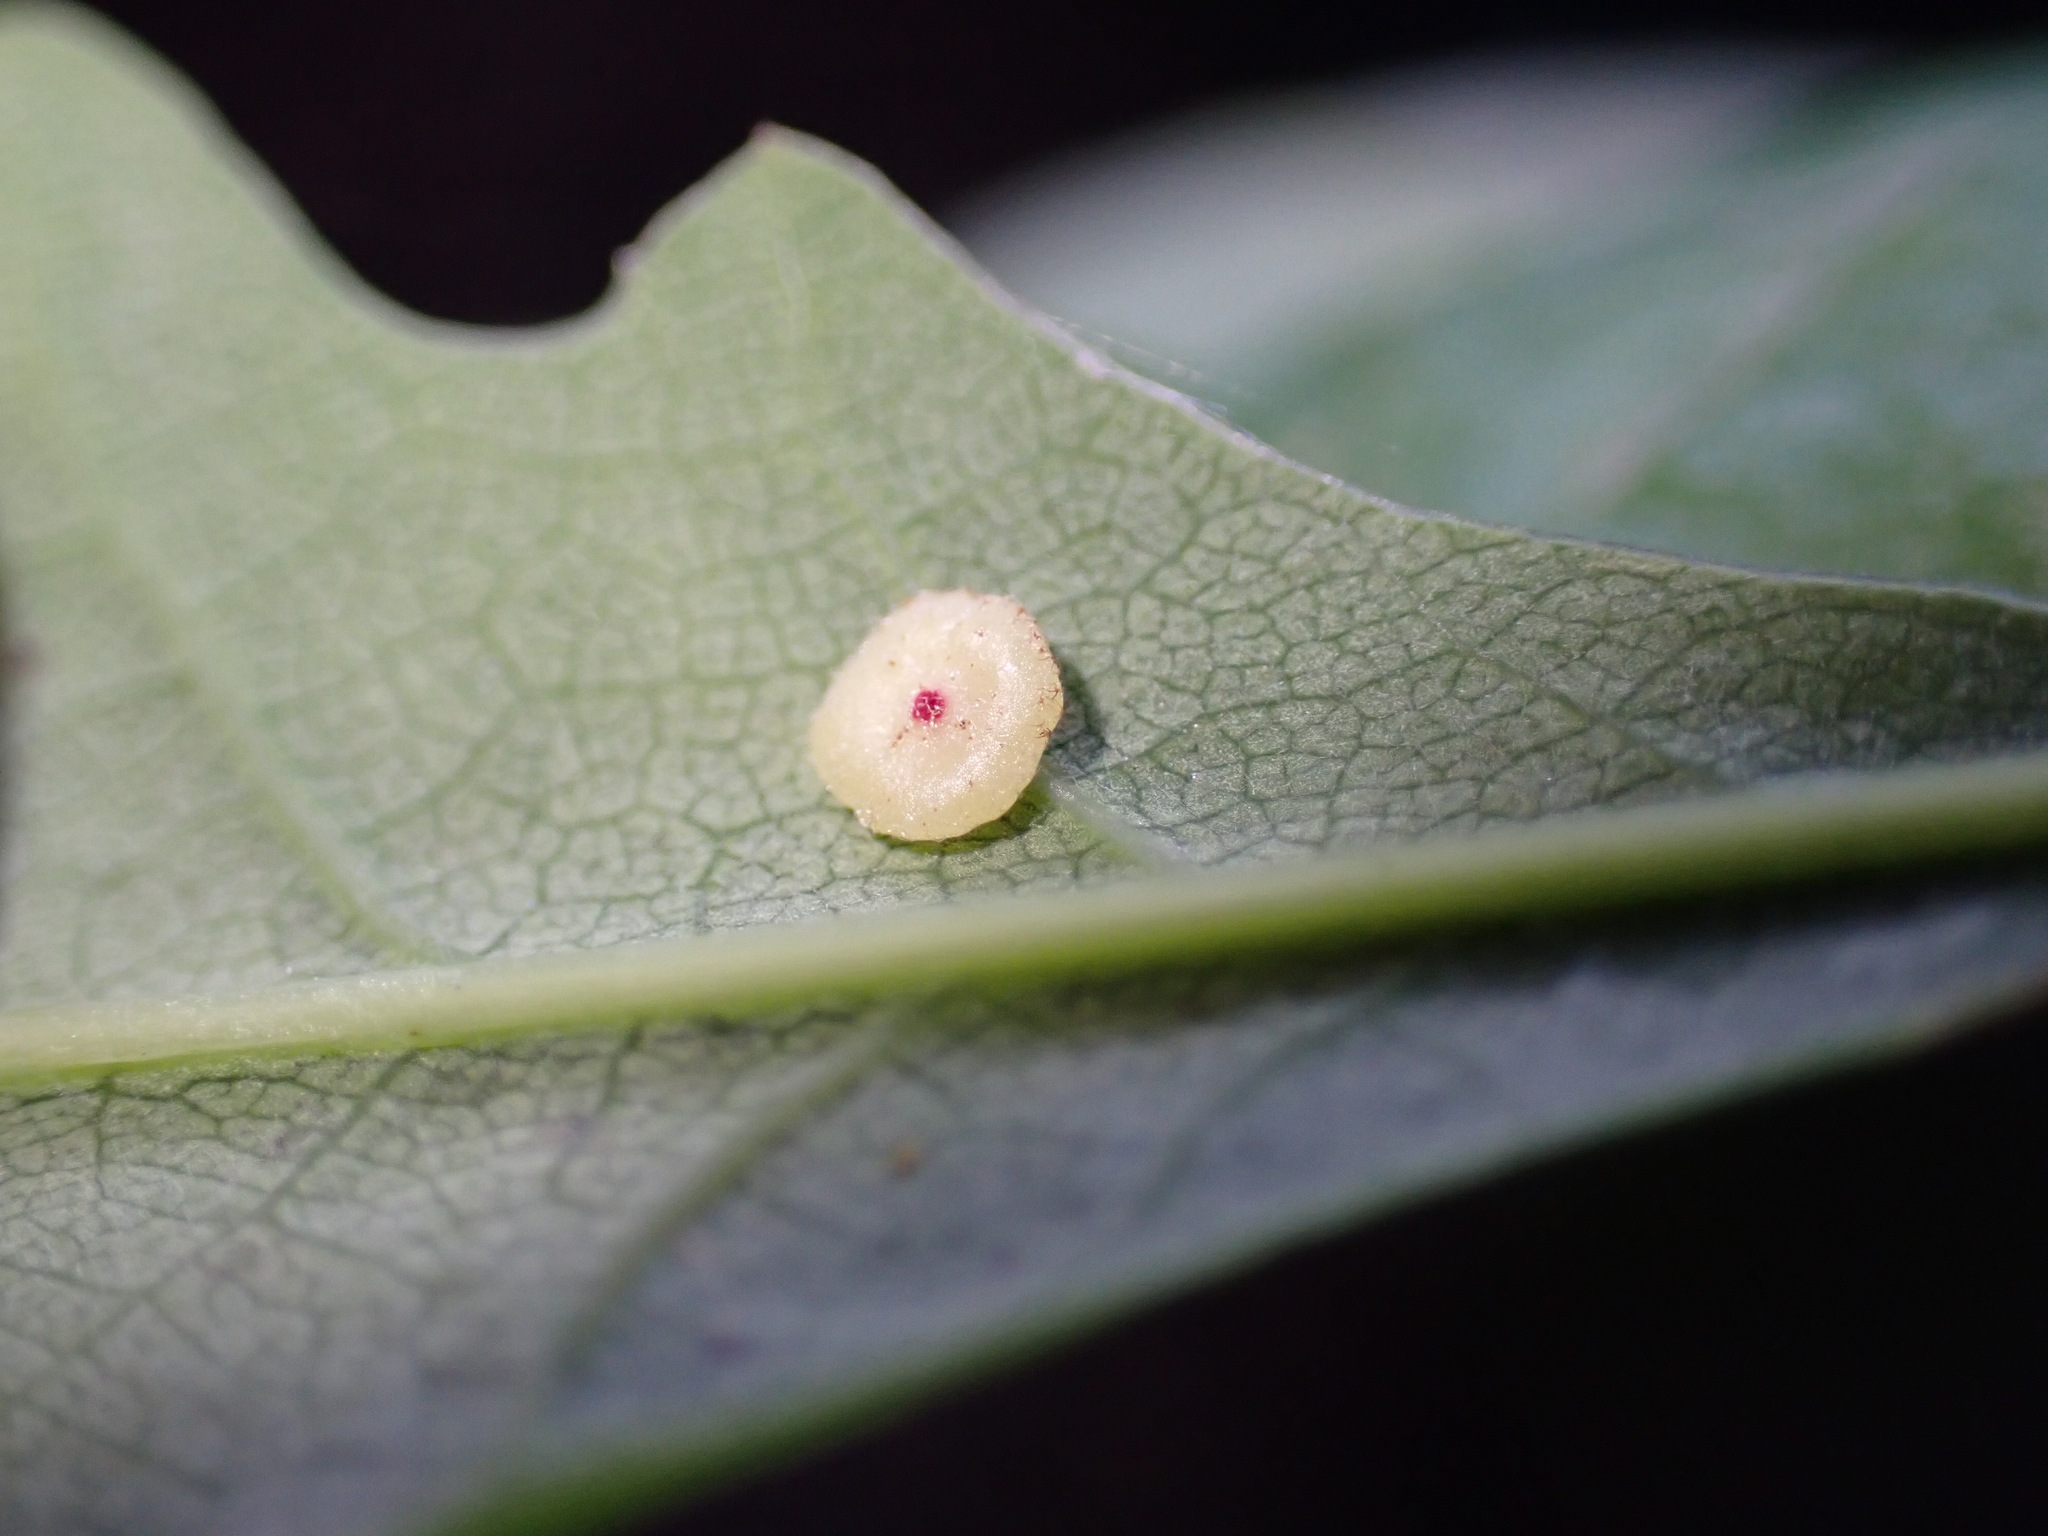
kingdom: Animalia
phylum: Arthropoda
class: Insecta
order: Hymenoptera
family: Cynipidae
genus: Neuroterus
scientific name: Neuroterus albipes
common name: Smooth spangle gall
